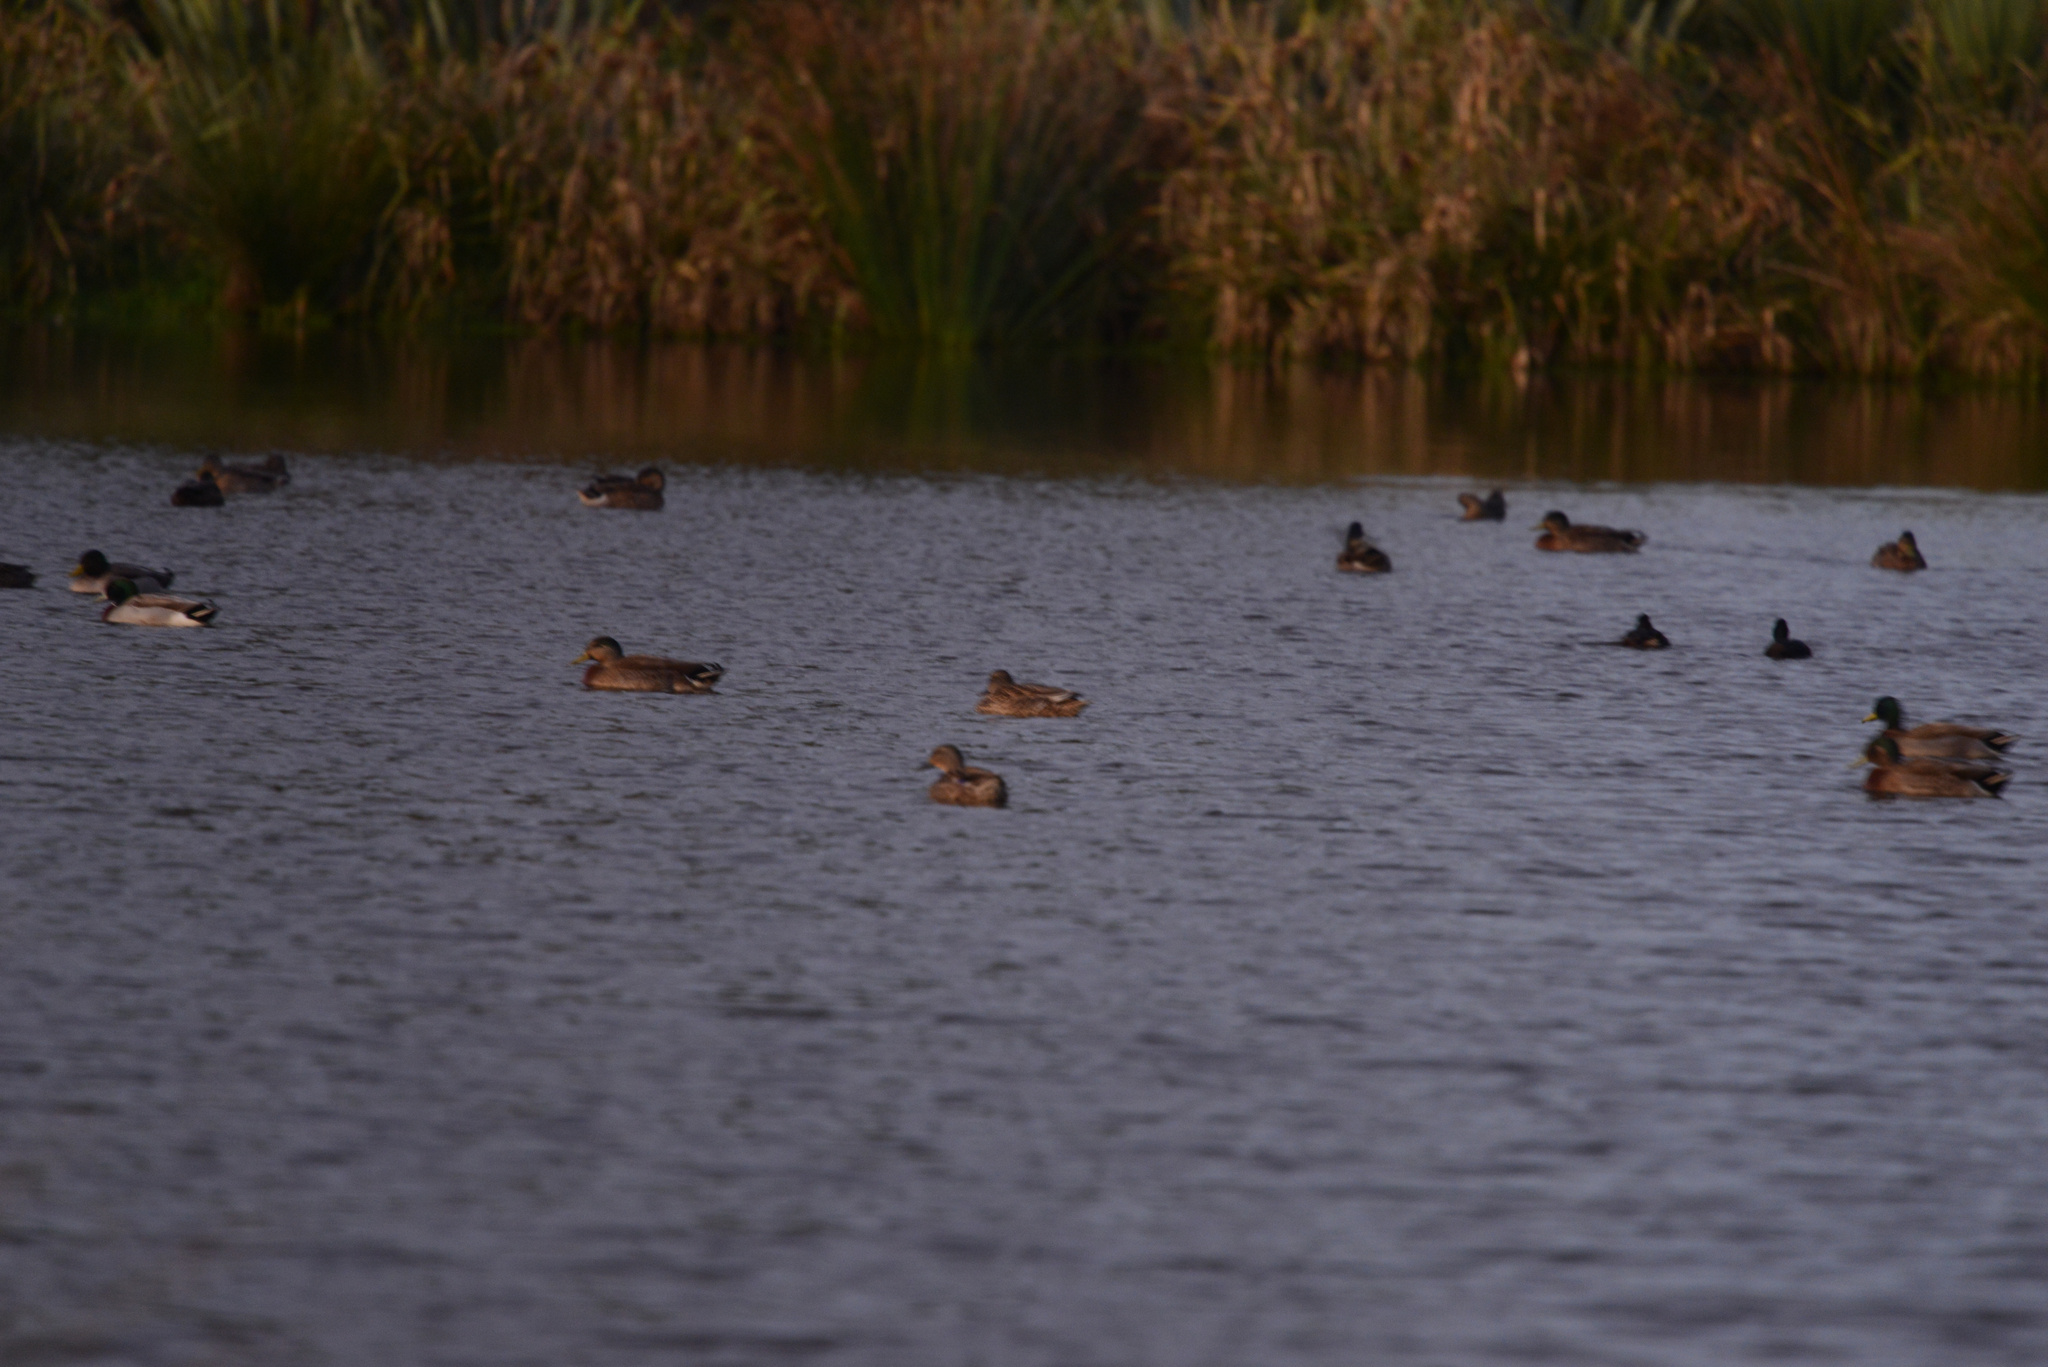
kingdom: Animalia
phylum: Chordata
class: Aves
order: Anseriformes
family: Anatidae
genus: Anas
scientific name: Anas
